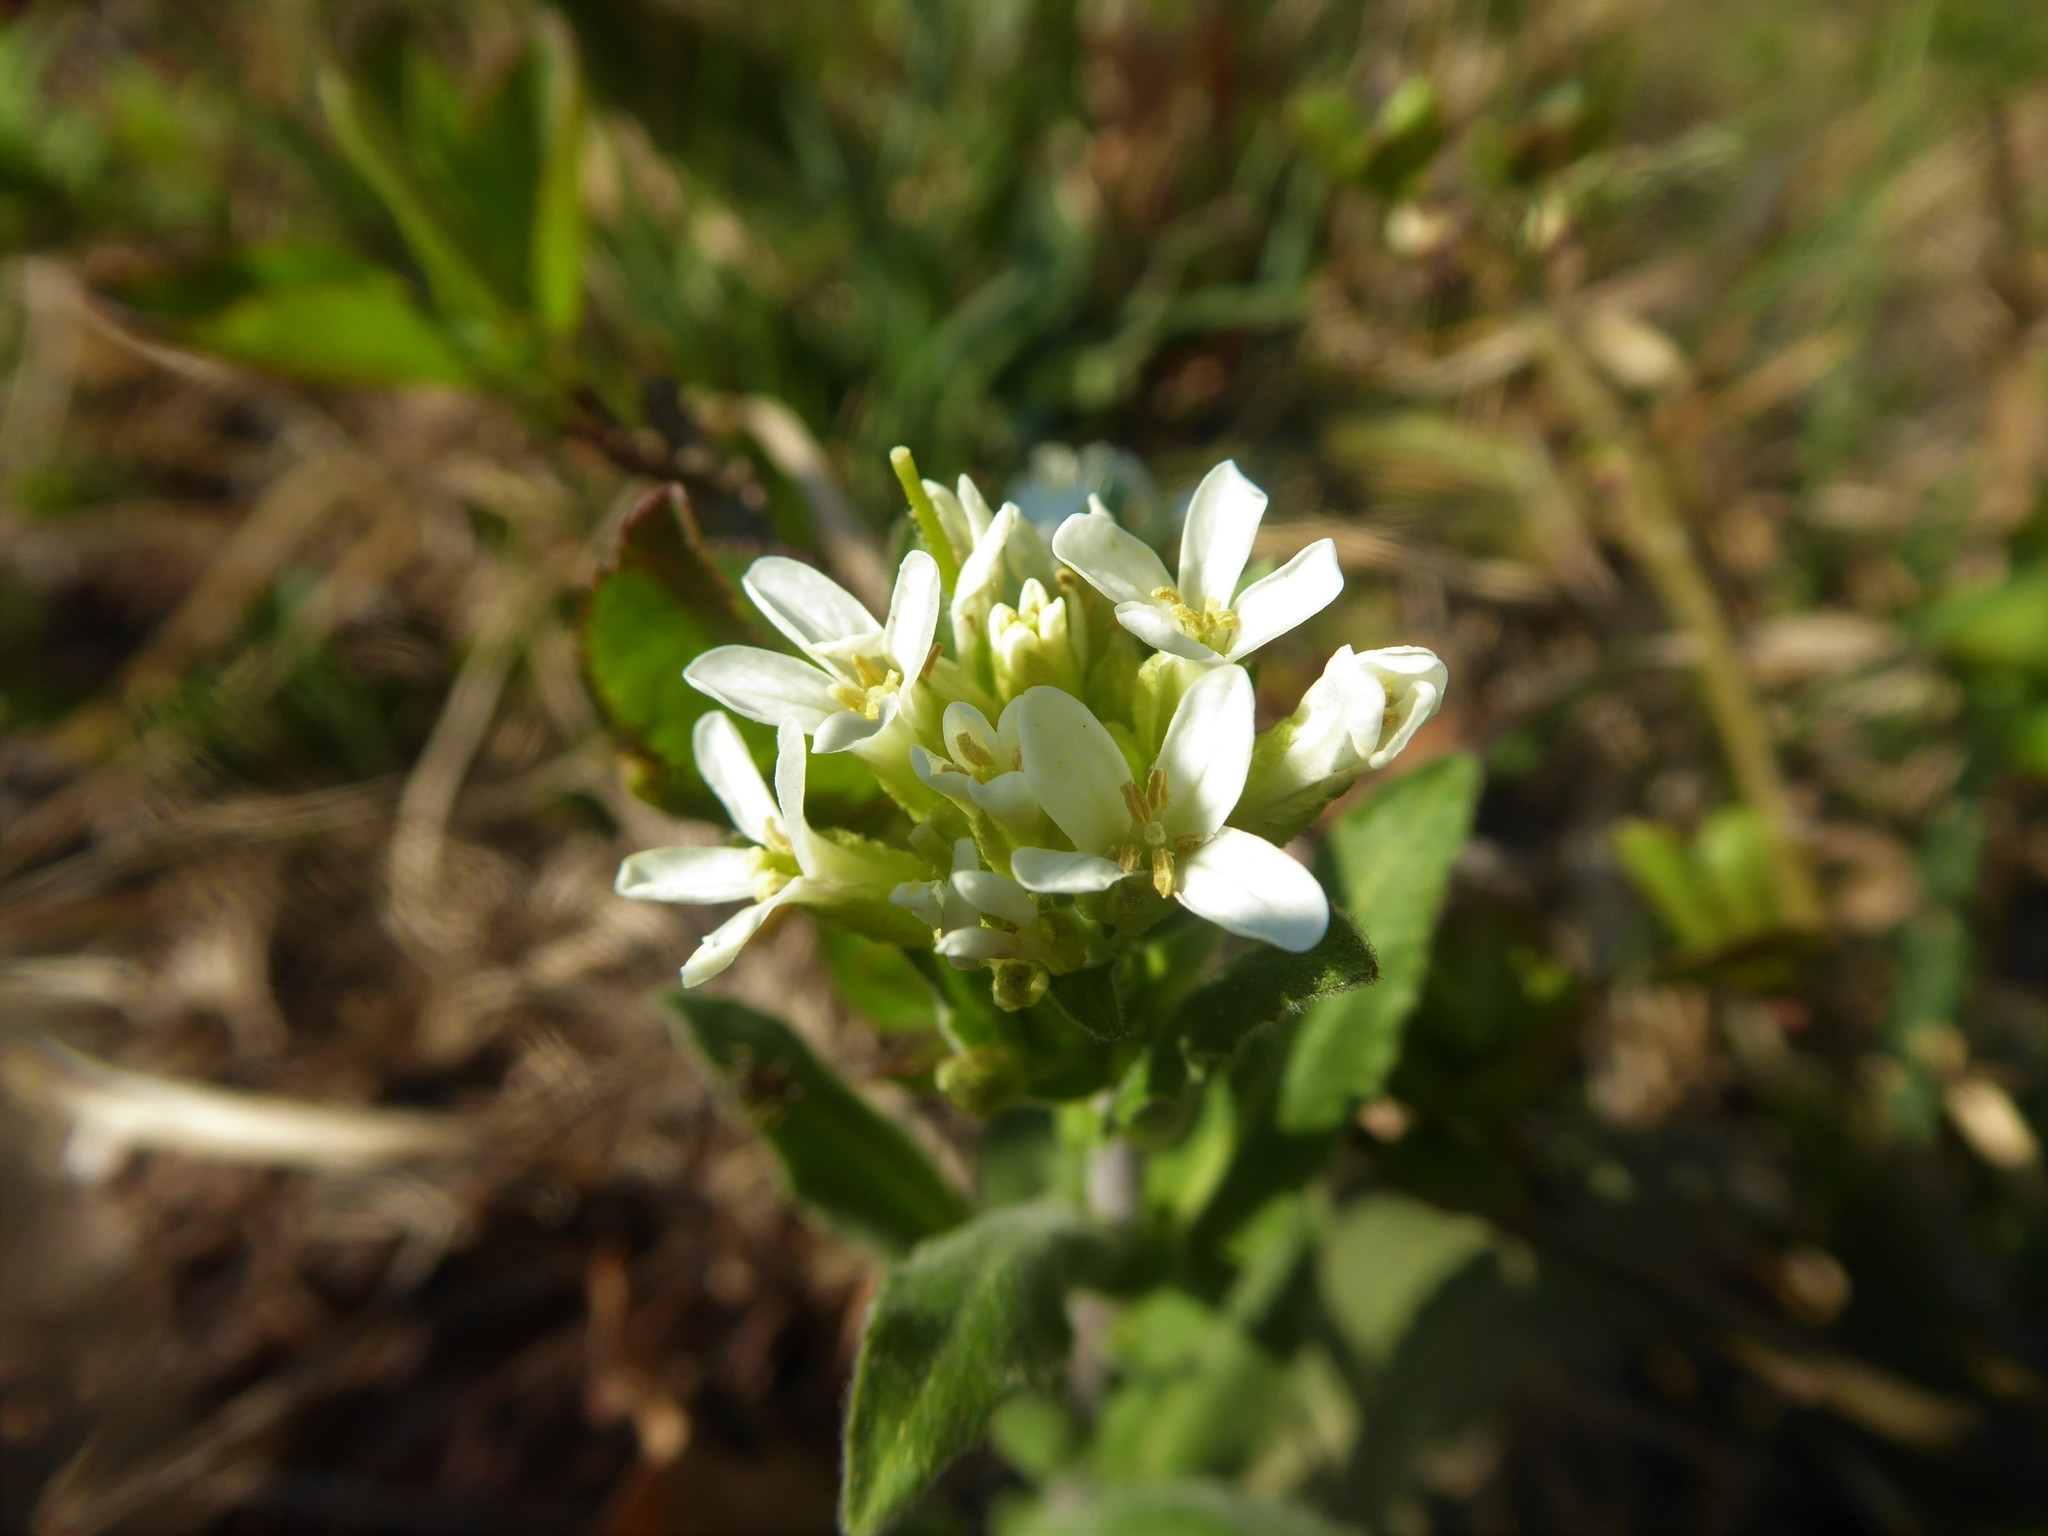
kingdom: Plantae
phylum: Tracheophyta
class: Magnoliopsida
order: Brassicales
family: Brassicaceae
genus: Pseudoturritis
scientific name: Pseudoturritis turrita
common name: Tower cress
